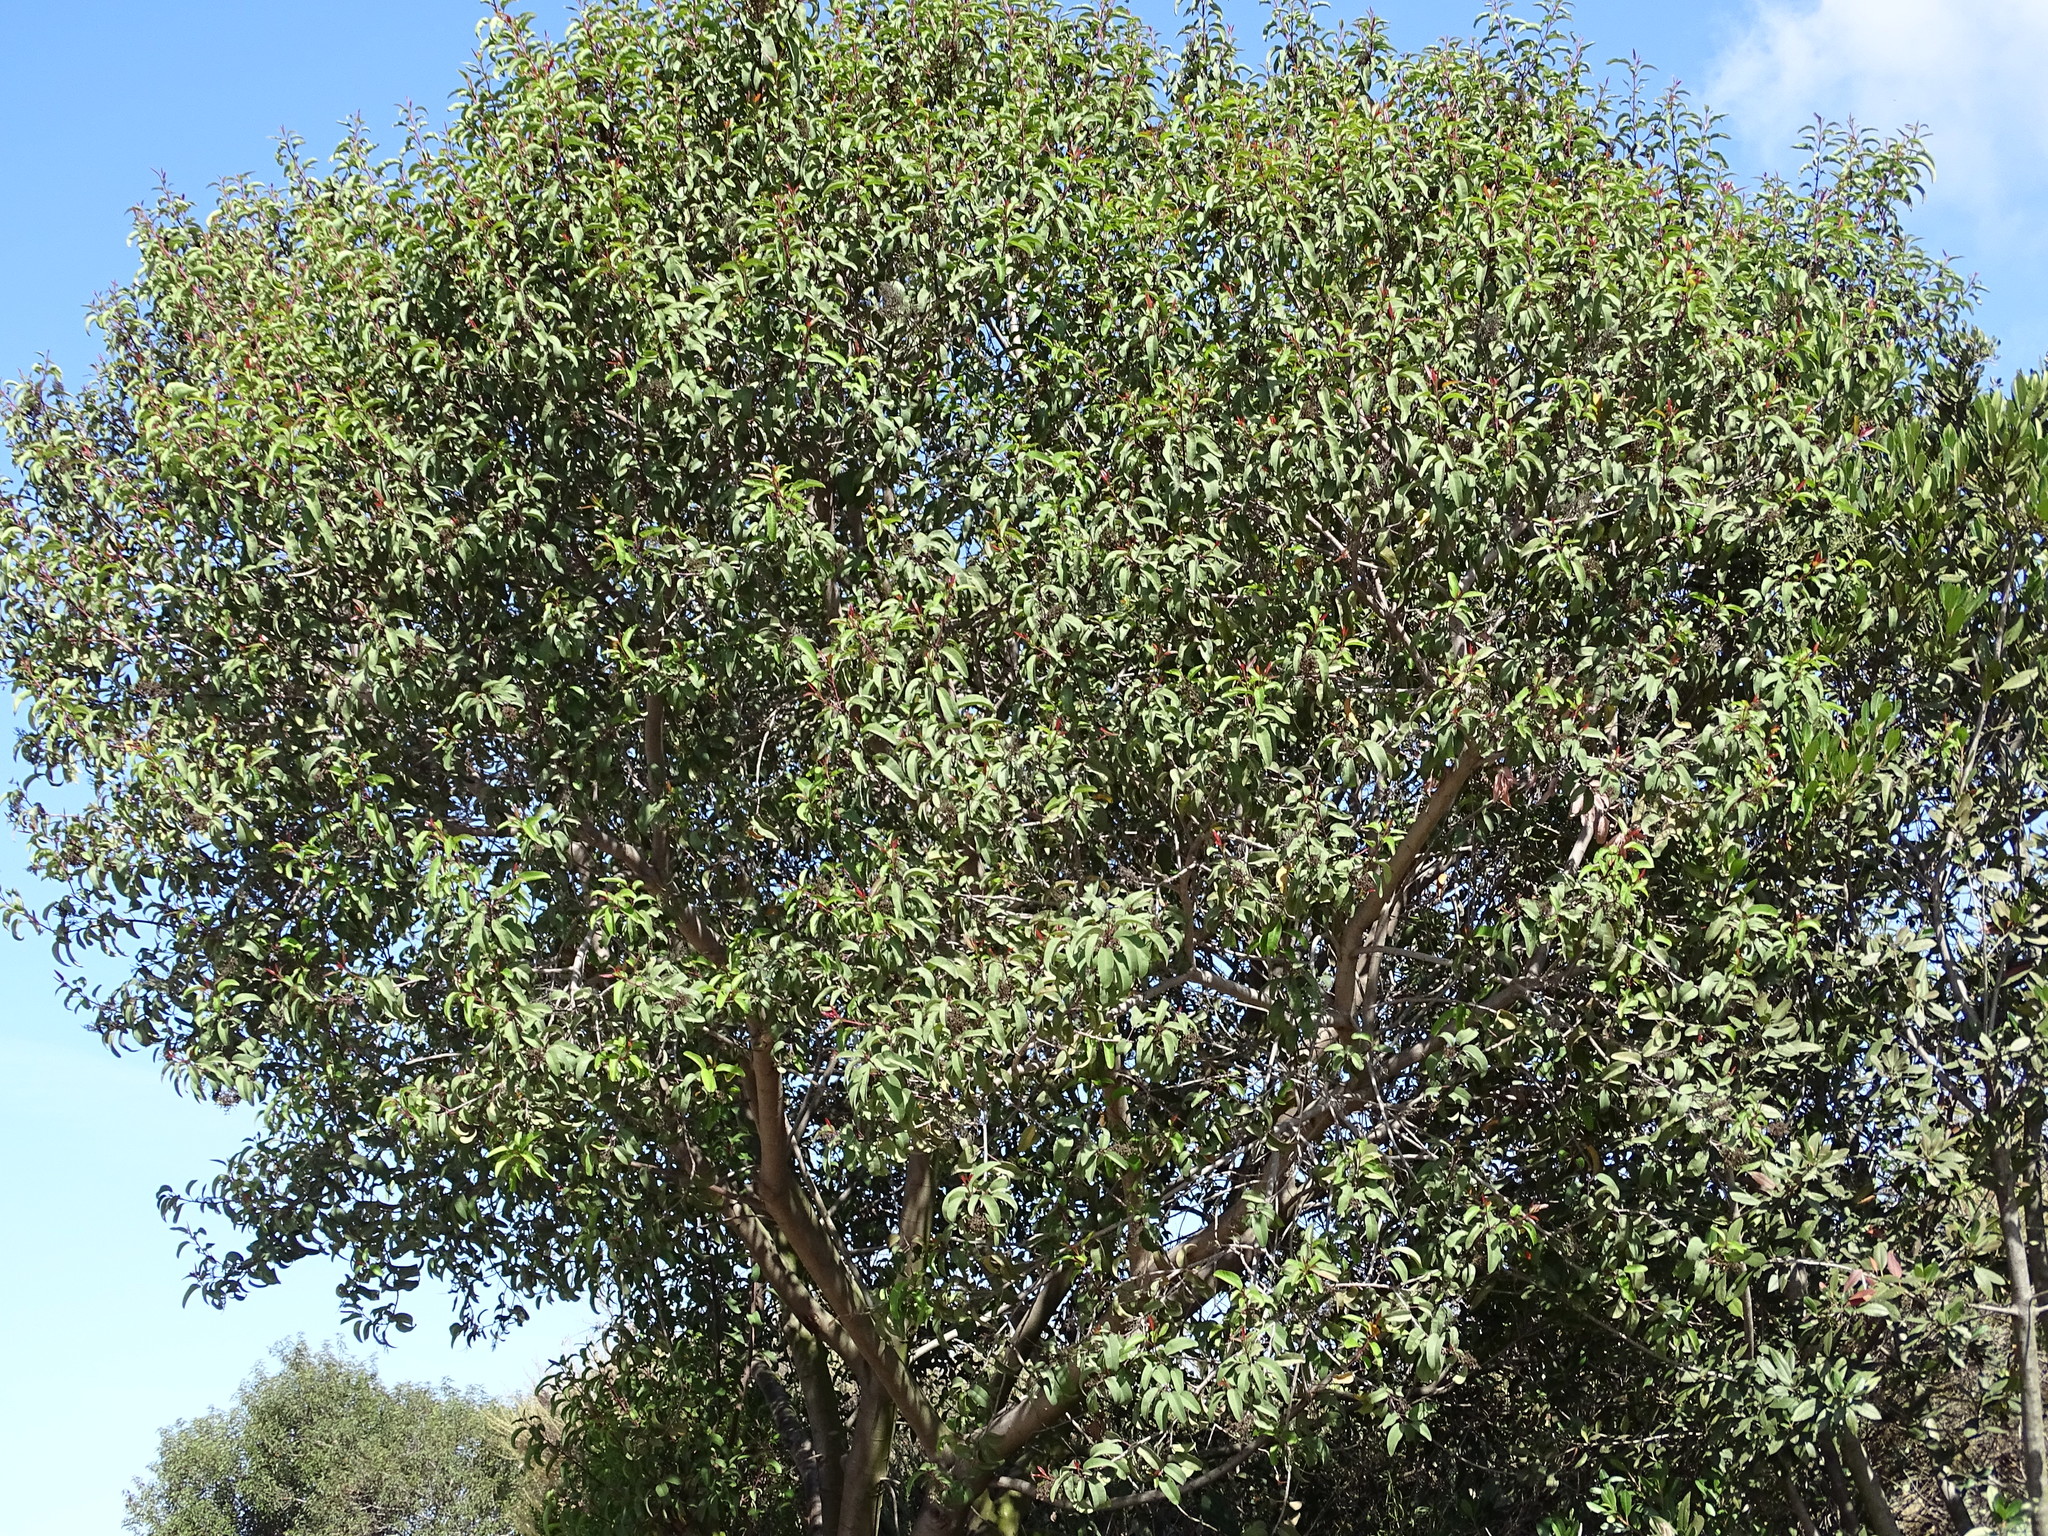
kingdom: Plantae
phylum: Tracheophyta
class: Magnoliopsida
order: Sapindales
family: Anacardiaceae
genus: Malosma
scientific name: Malosma laurina
